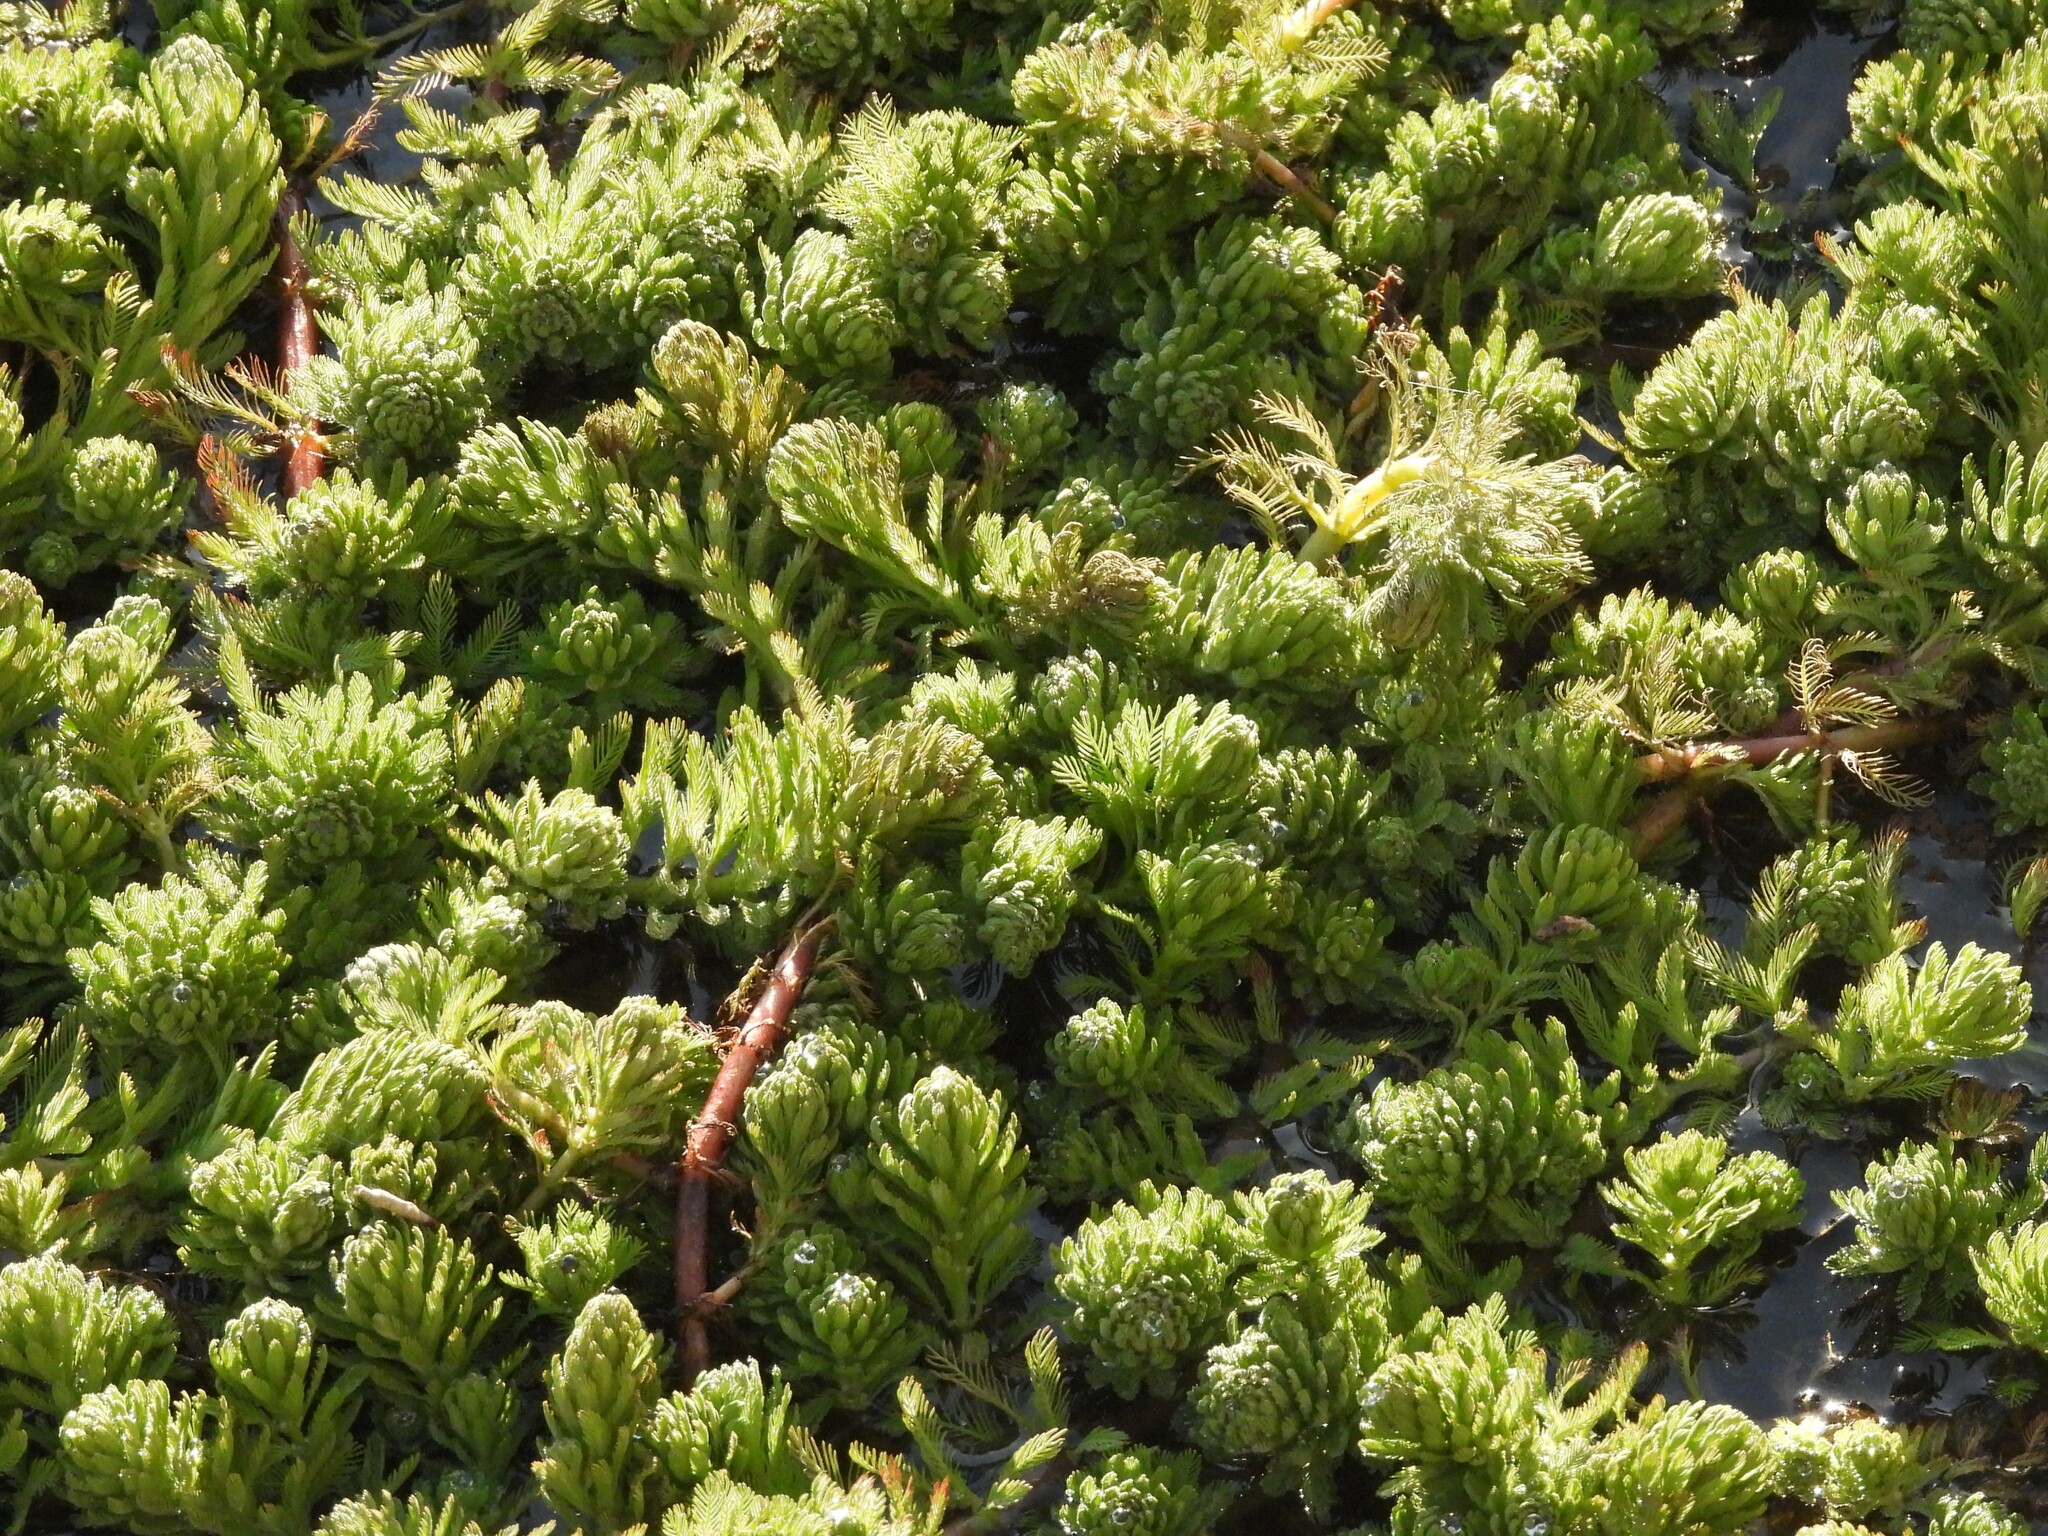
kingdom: Plantae
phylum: Tracheophyta
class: Magnoliopsida
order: Saxifragales
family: Haloragaceae
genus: Myriophyllum
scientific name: Myriophyllum aquaticum
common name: Parrot's feather
